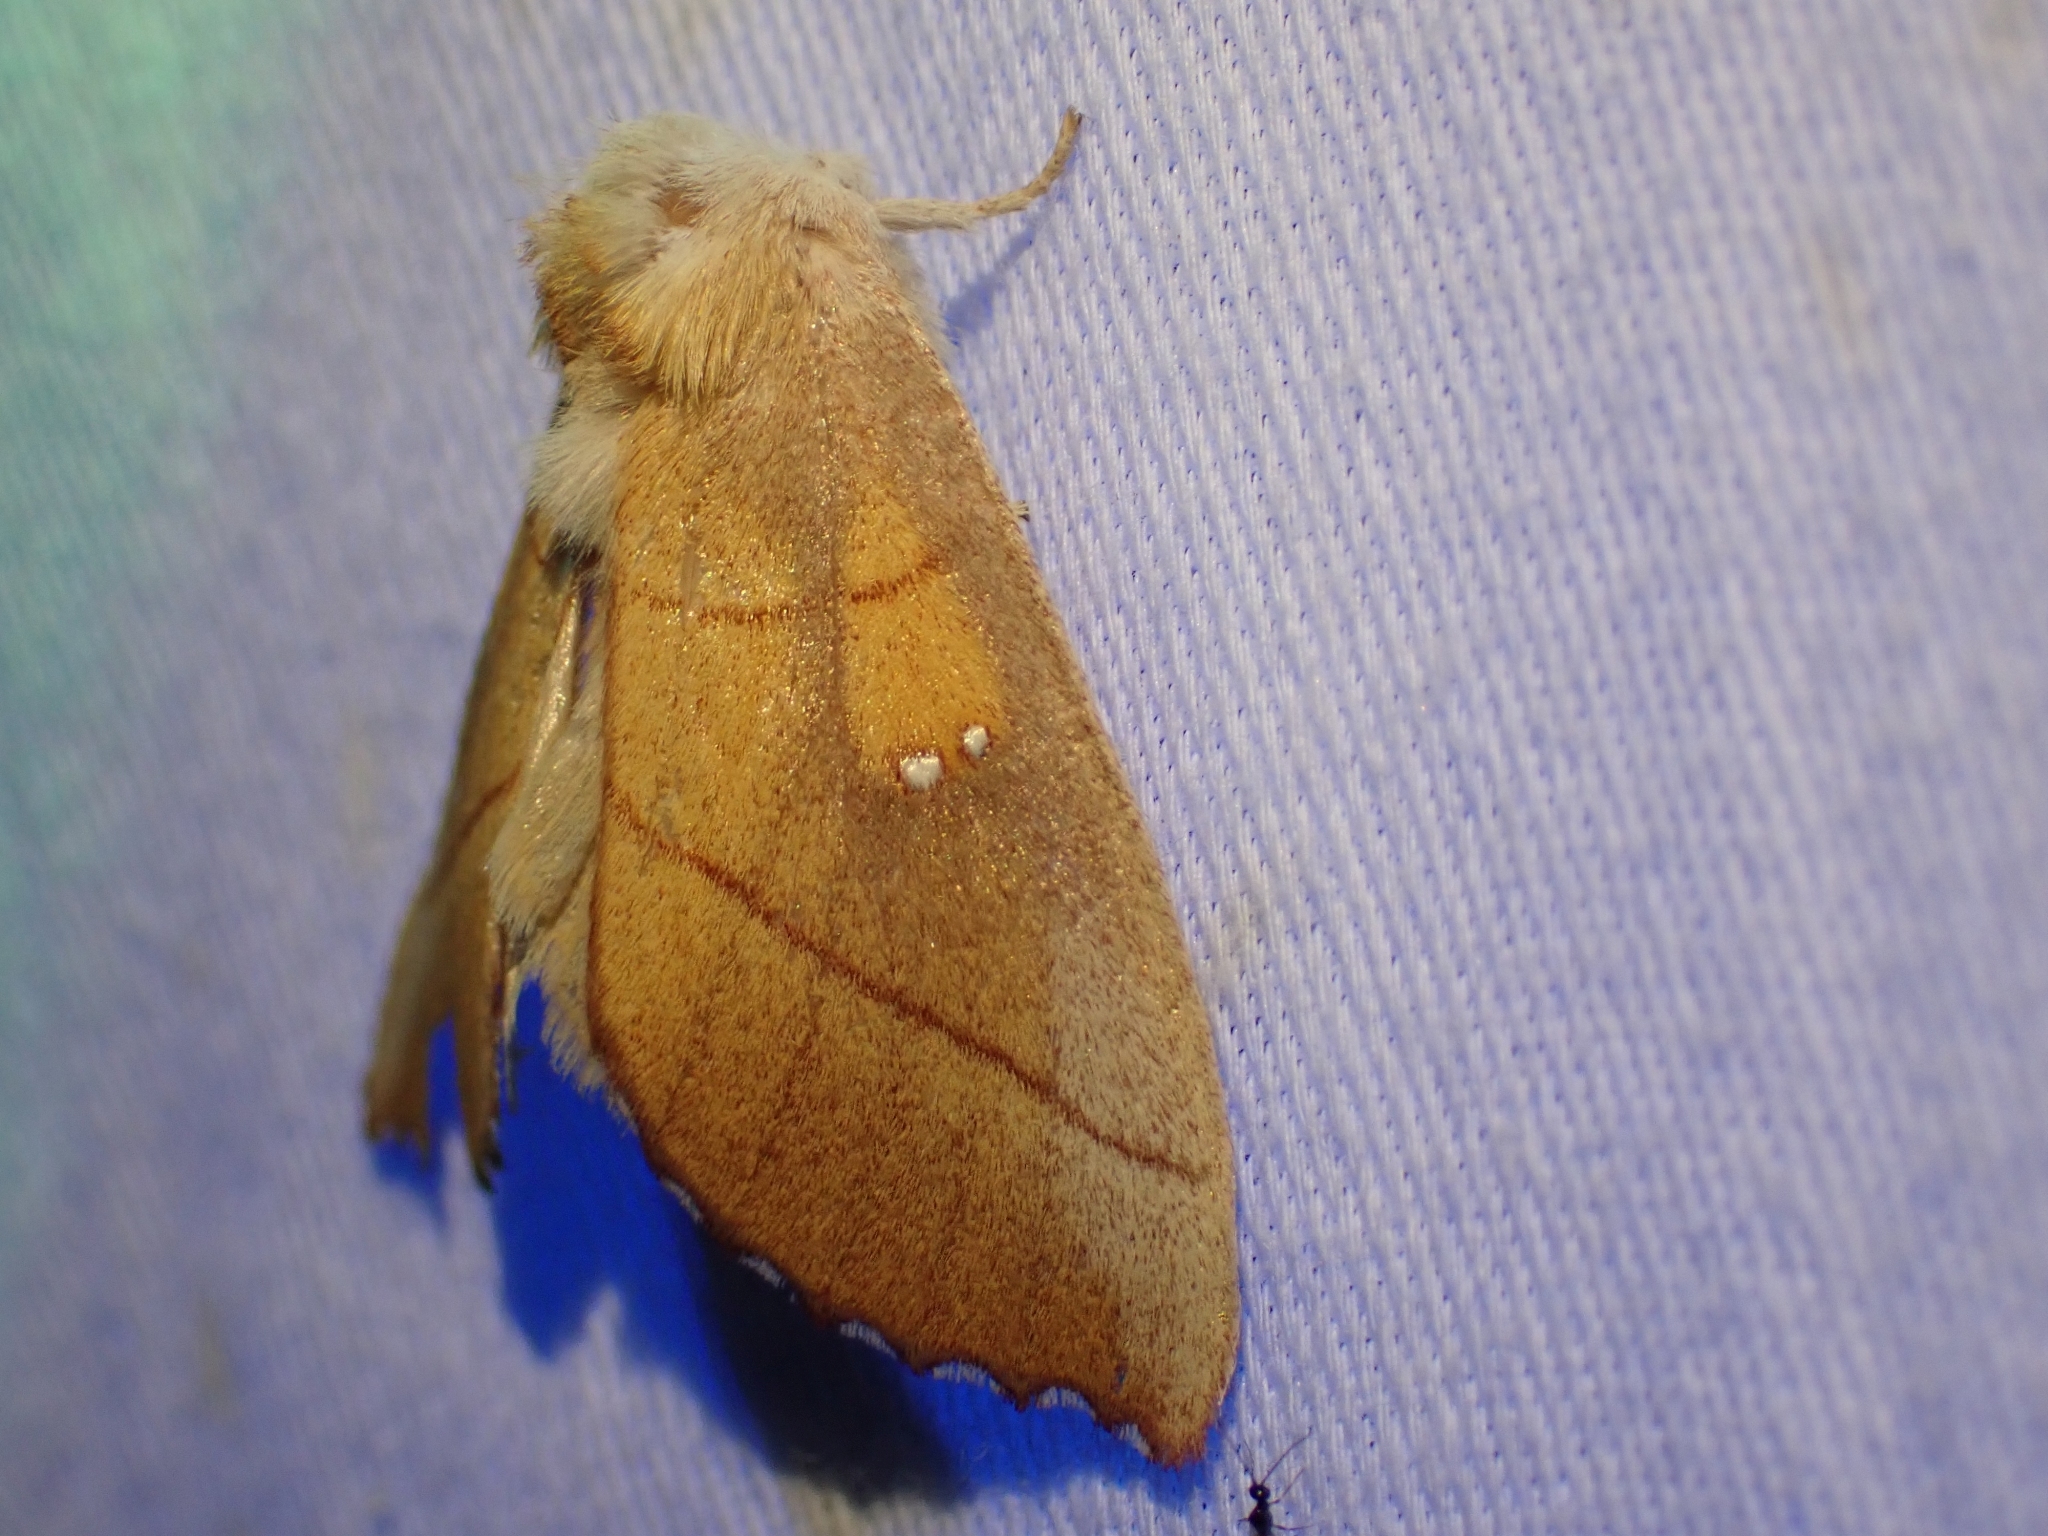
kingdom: Animalia
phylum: Arthropoda
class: Insecta
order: Lepidoptera
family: Notodontidae
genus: Nadata
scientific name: Nadata gibbosa
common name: White-dotted prominent
